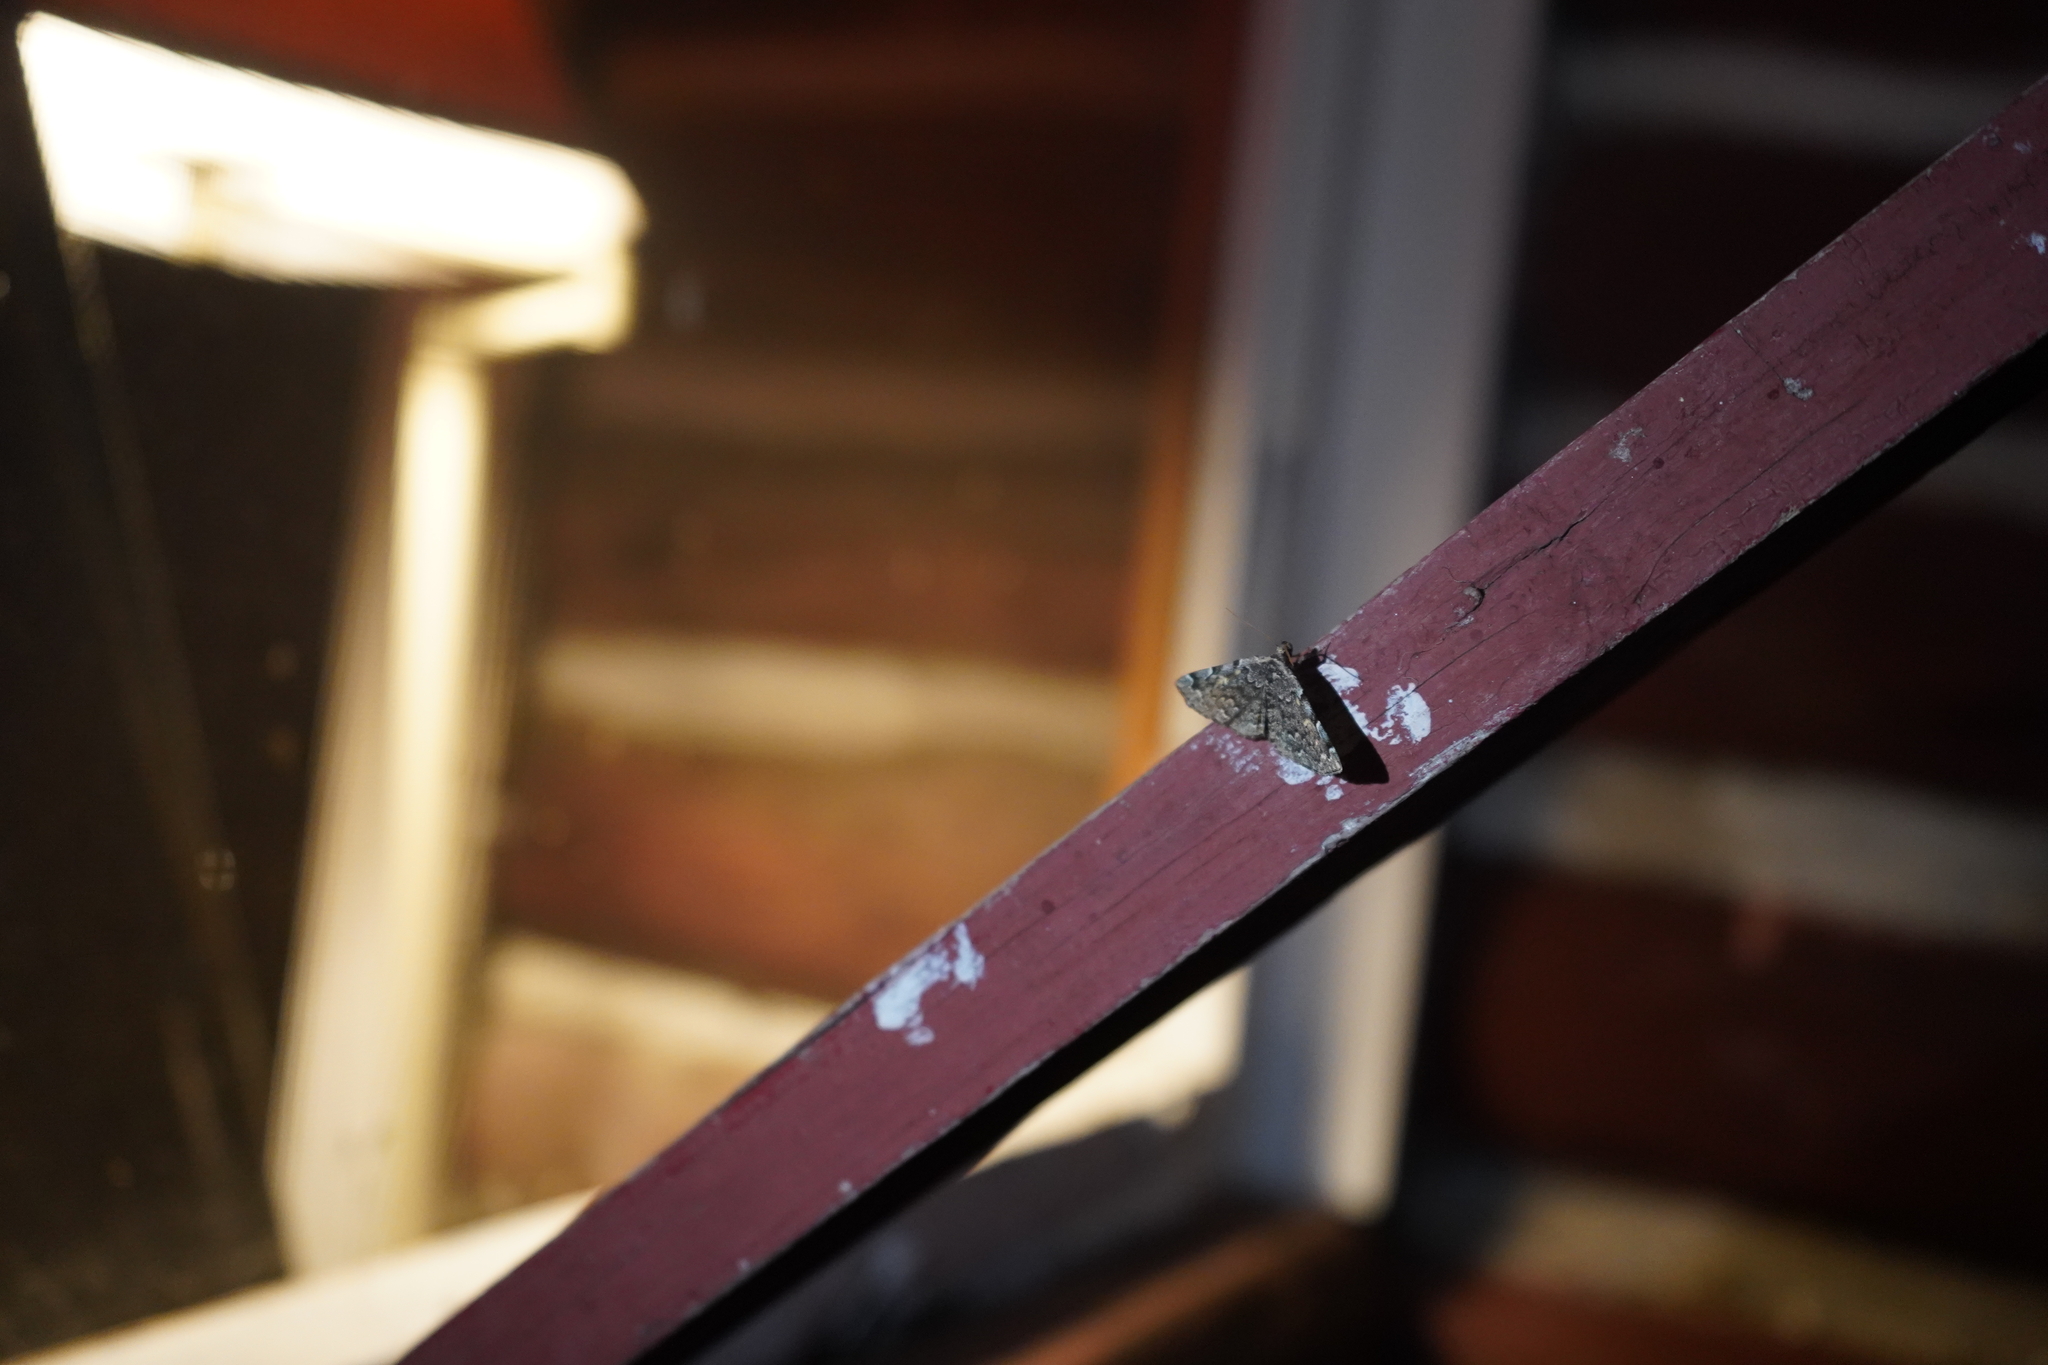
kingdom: Animalia
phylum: Arthropoda
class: Insecta
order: Lepidoptera
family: Erebidae
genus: Idia
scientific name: Idia majoralis
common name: Greater idia moth
